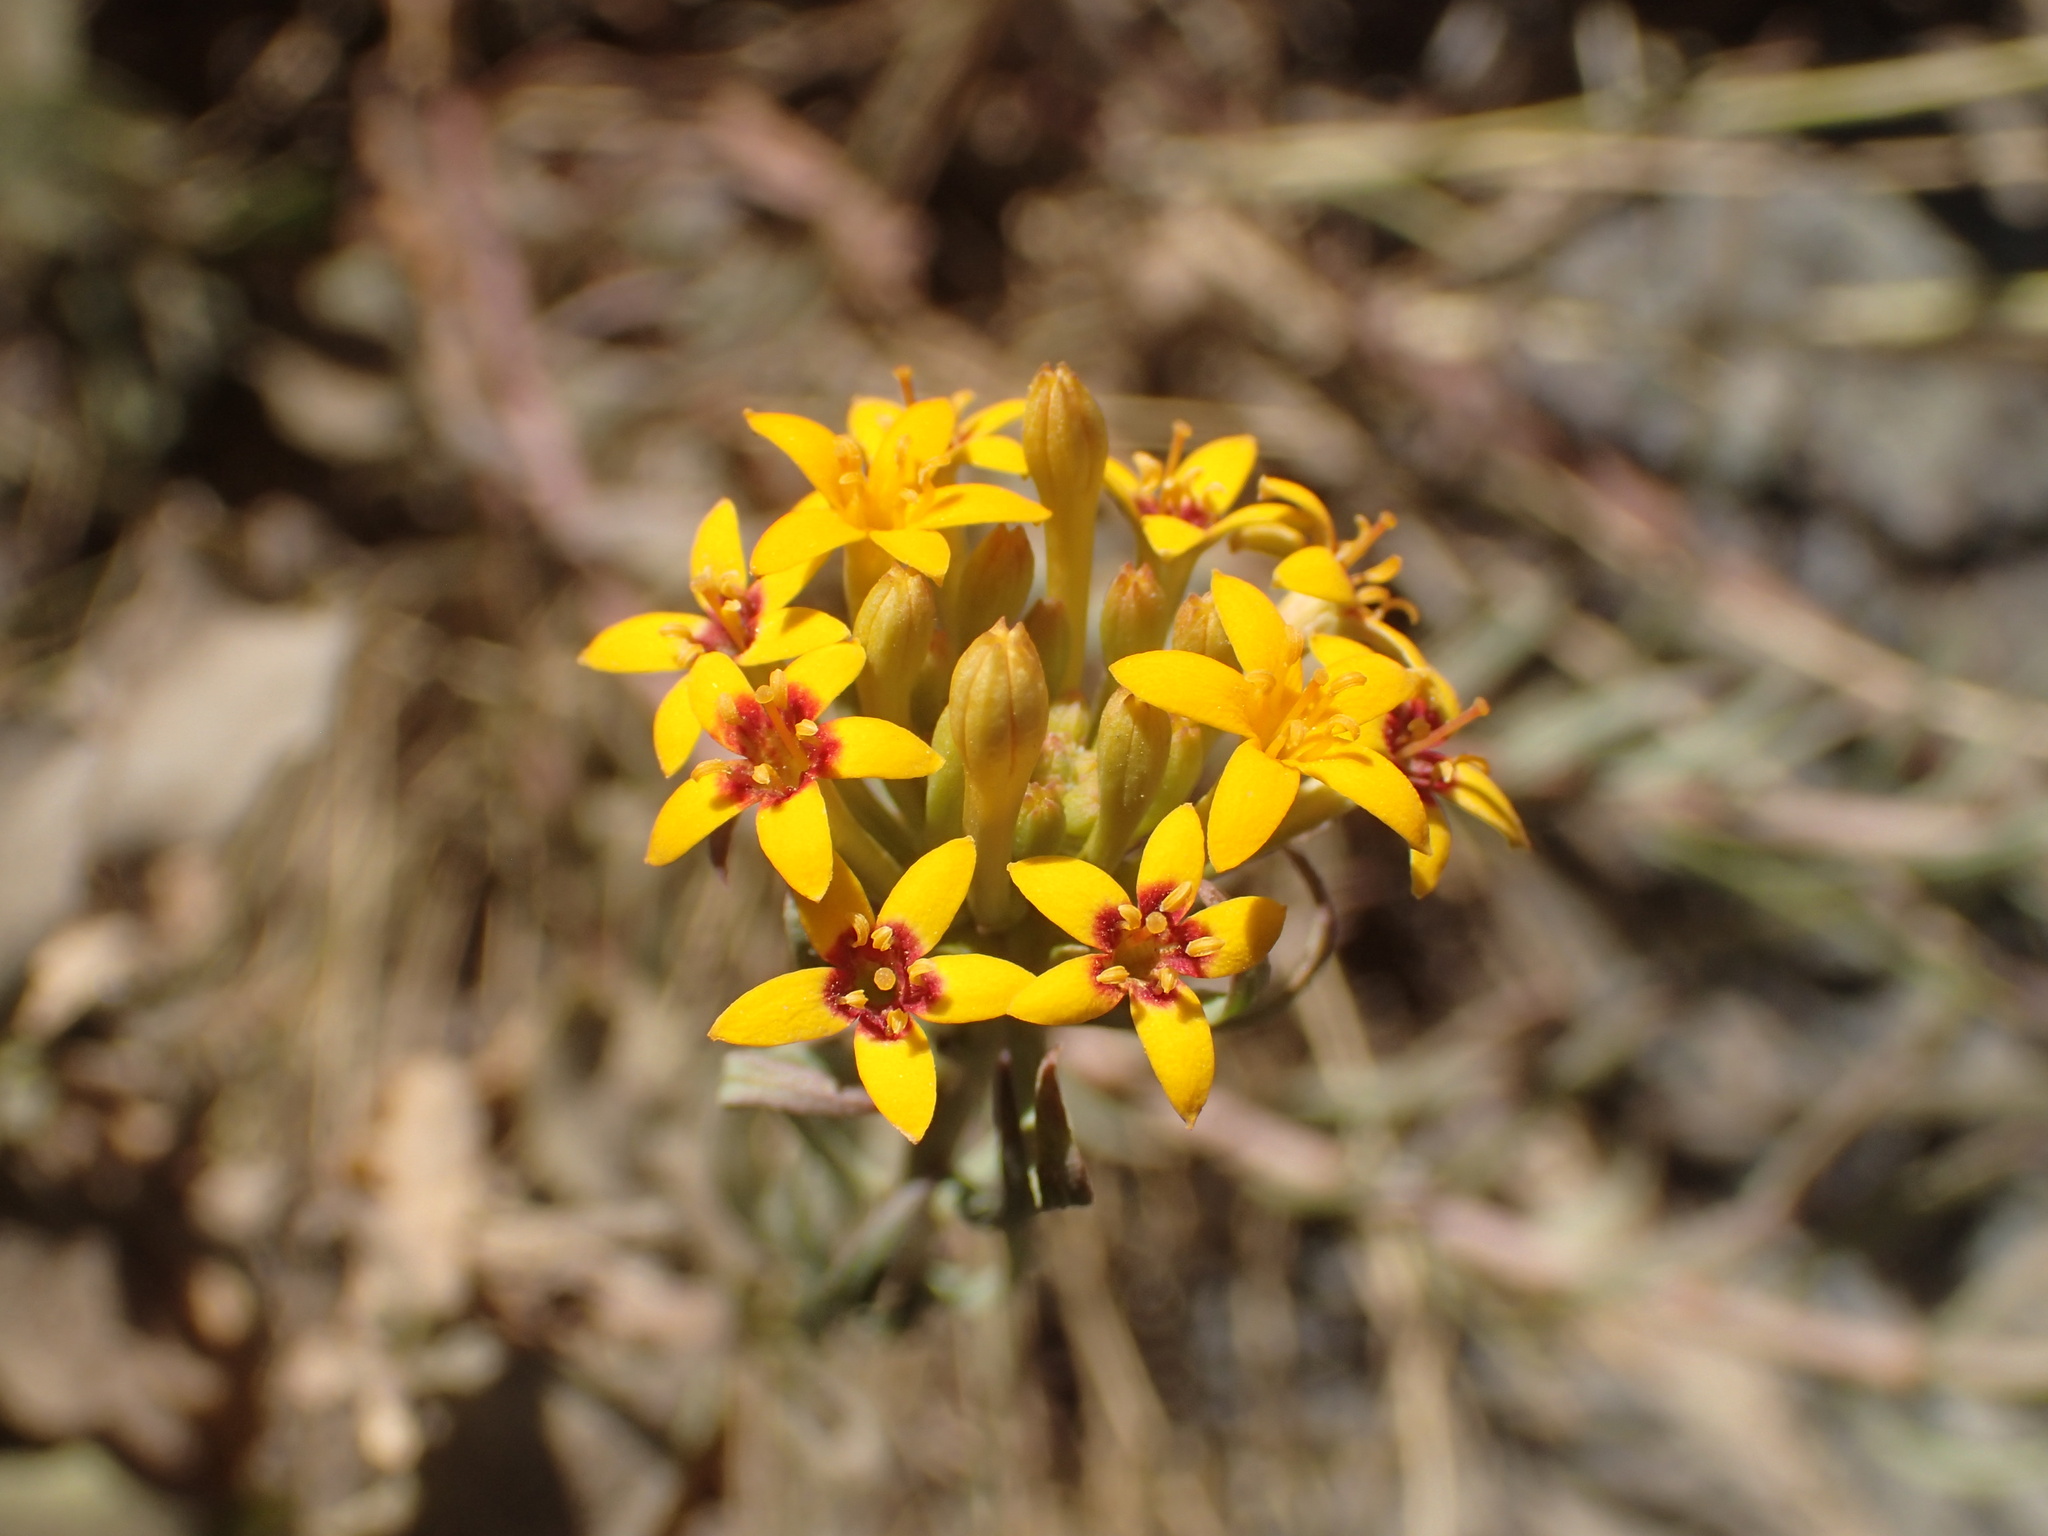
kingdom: Plantae
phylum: Tracheophyta
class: Magnoliopsida
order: Santalales
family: Schoepfiaceae
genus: Quinchamalium
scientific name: Quinchamalium chilense
